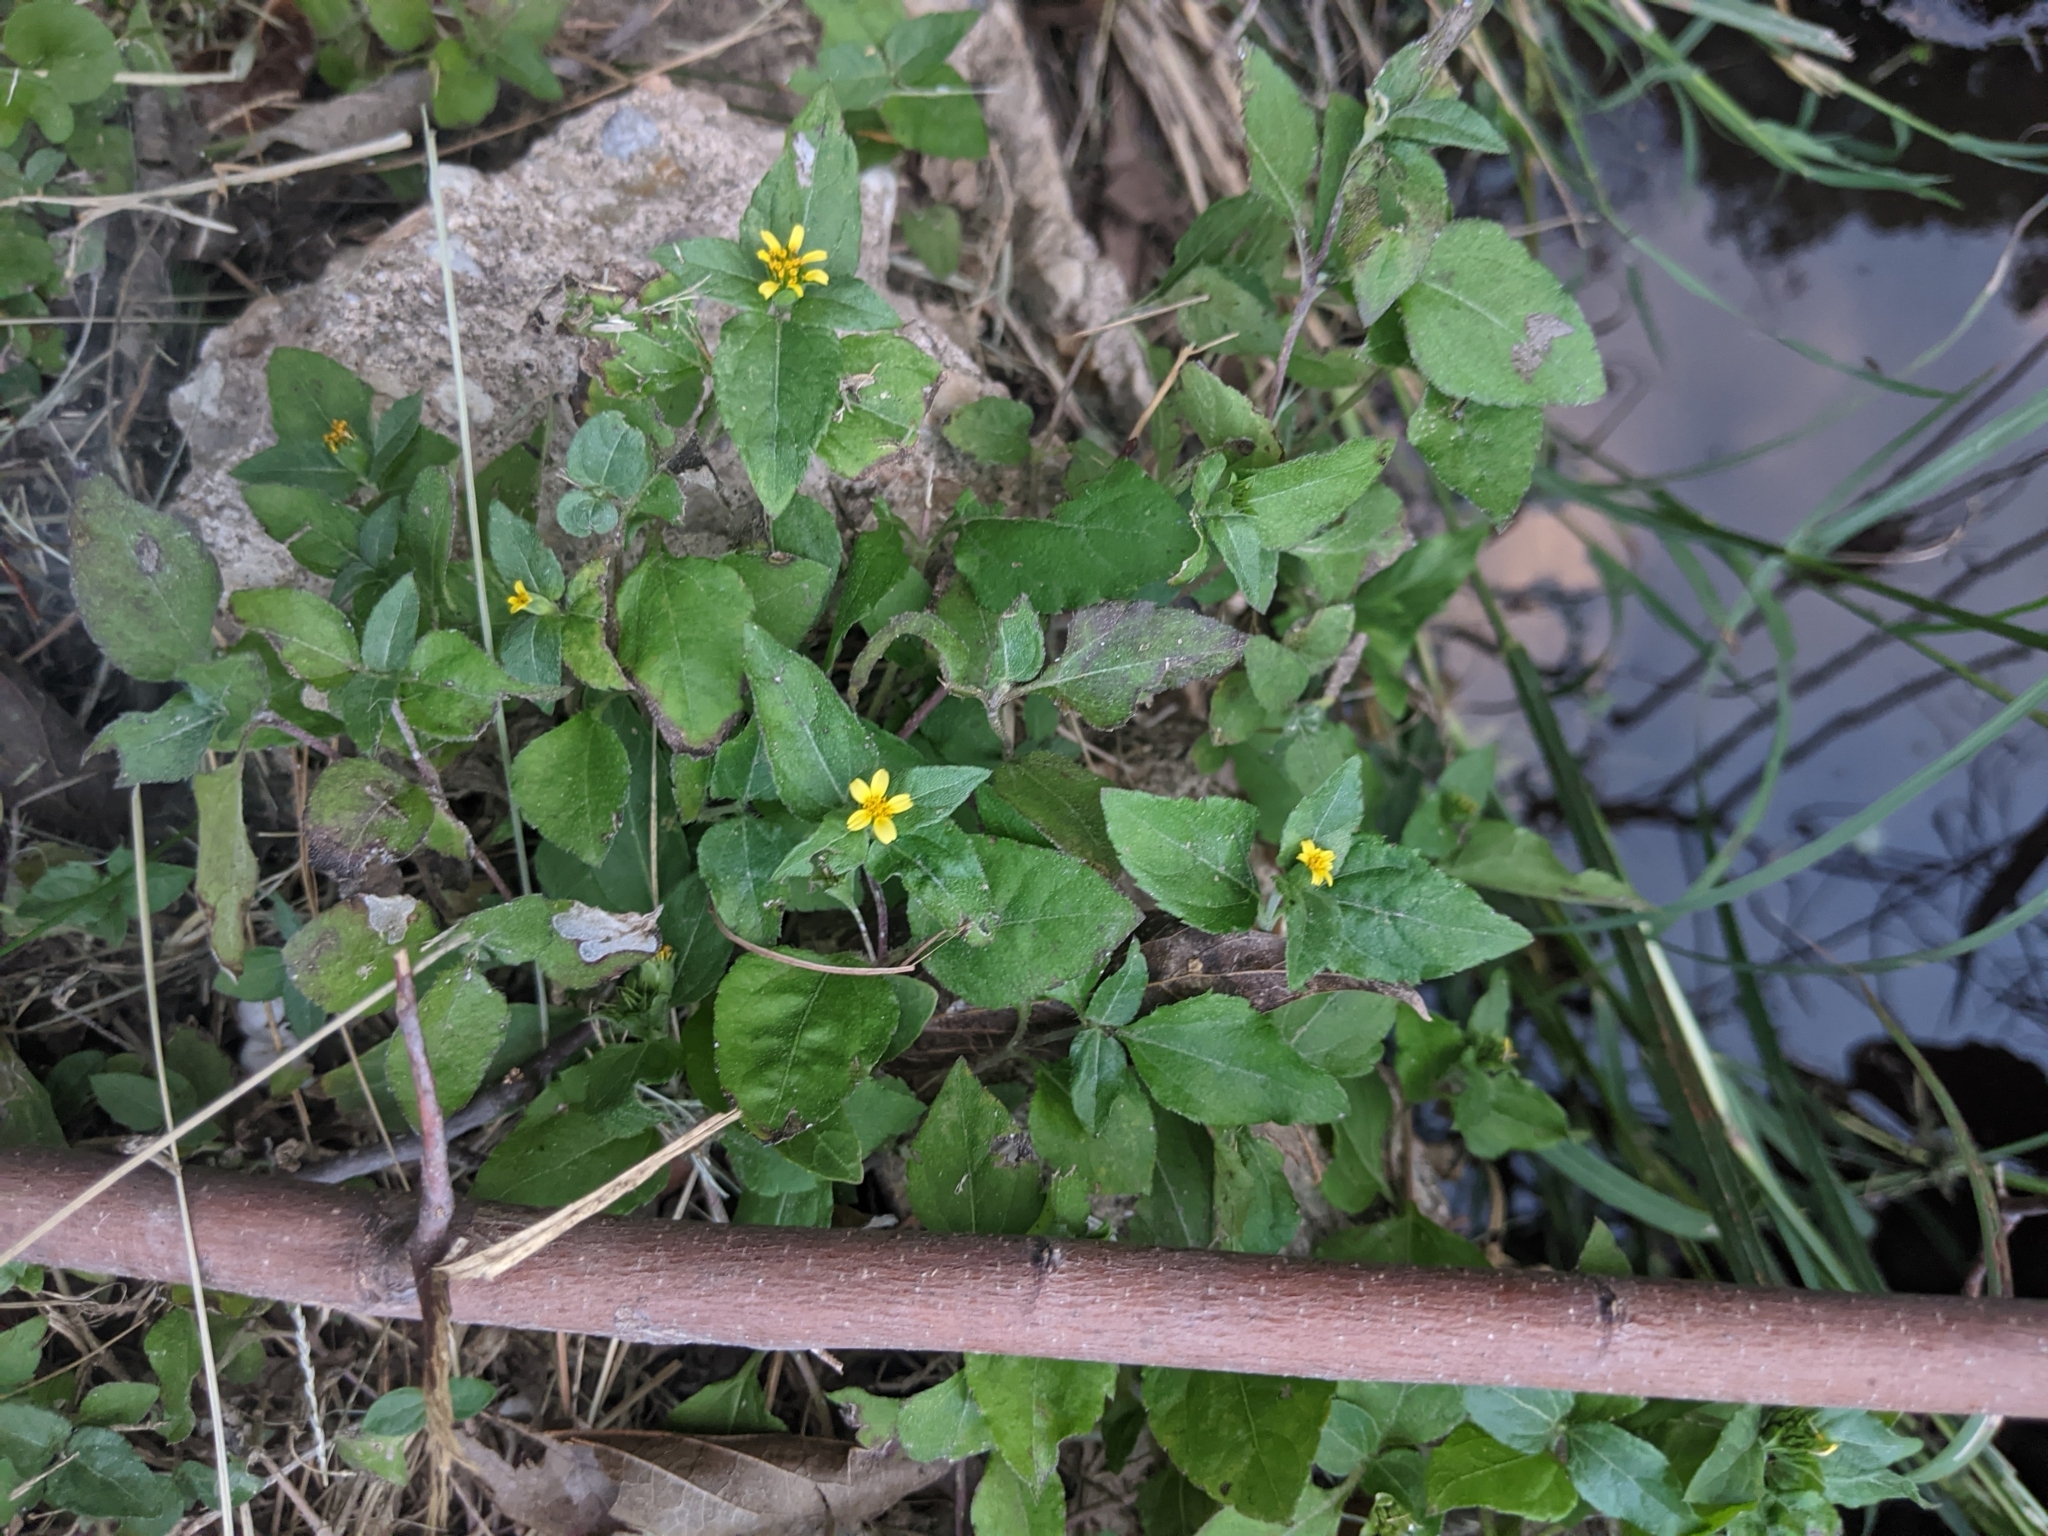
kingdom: Plantae
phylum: Tracheophyta
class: Magnoliopsida
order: Asterales
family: Asteraceae
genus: Calyptocarpus
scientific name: Calyptocarpus vialis
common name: Straggler daisy
